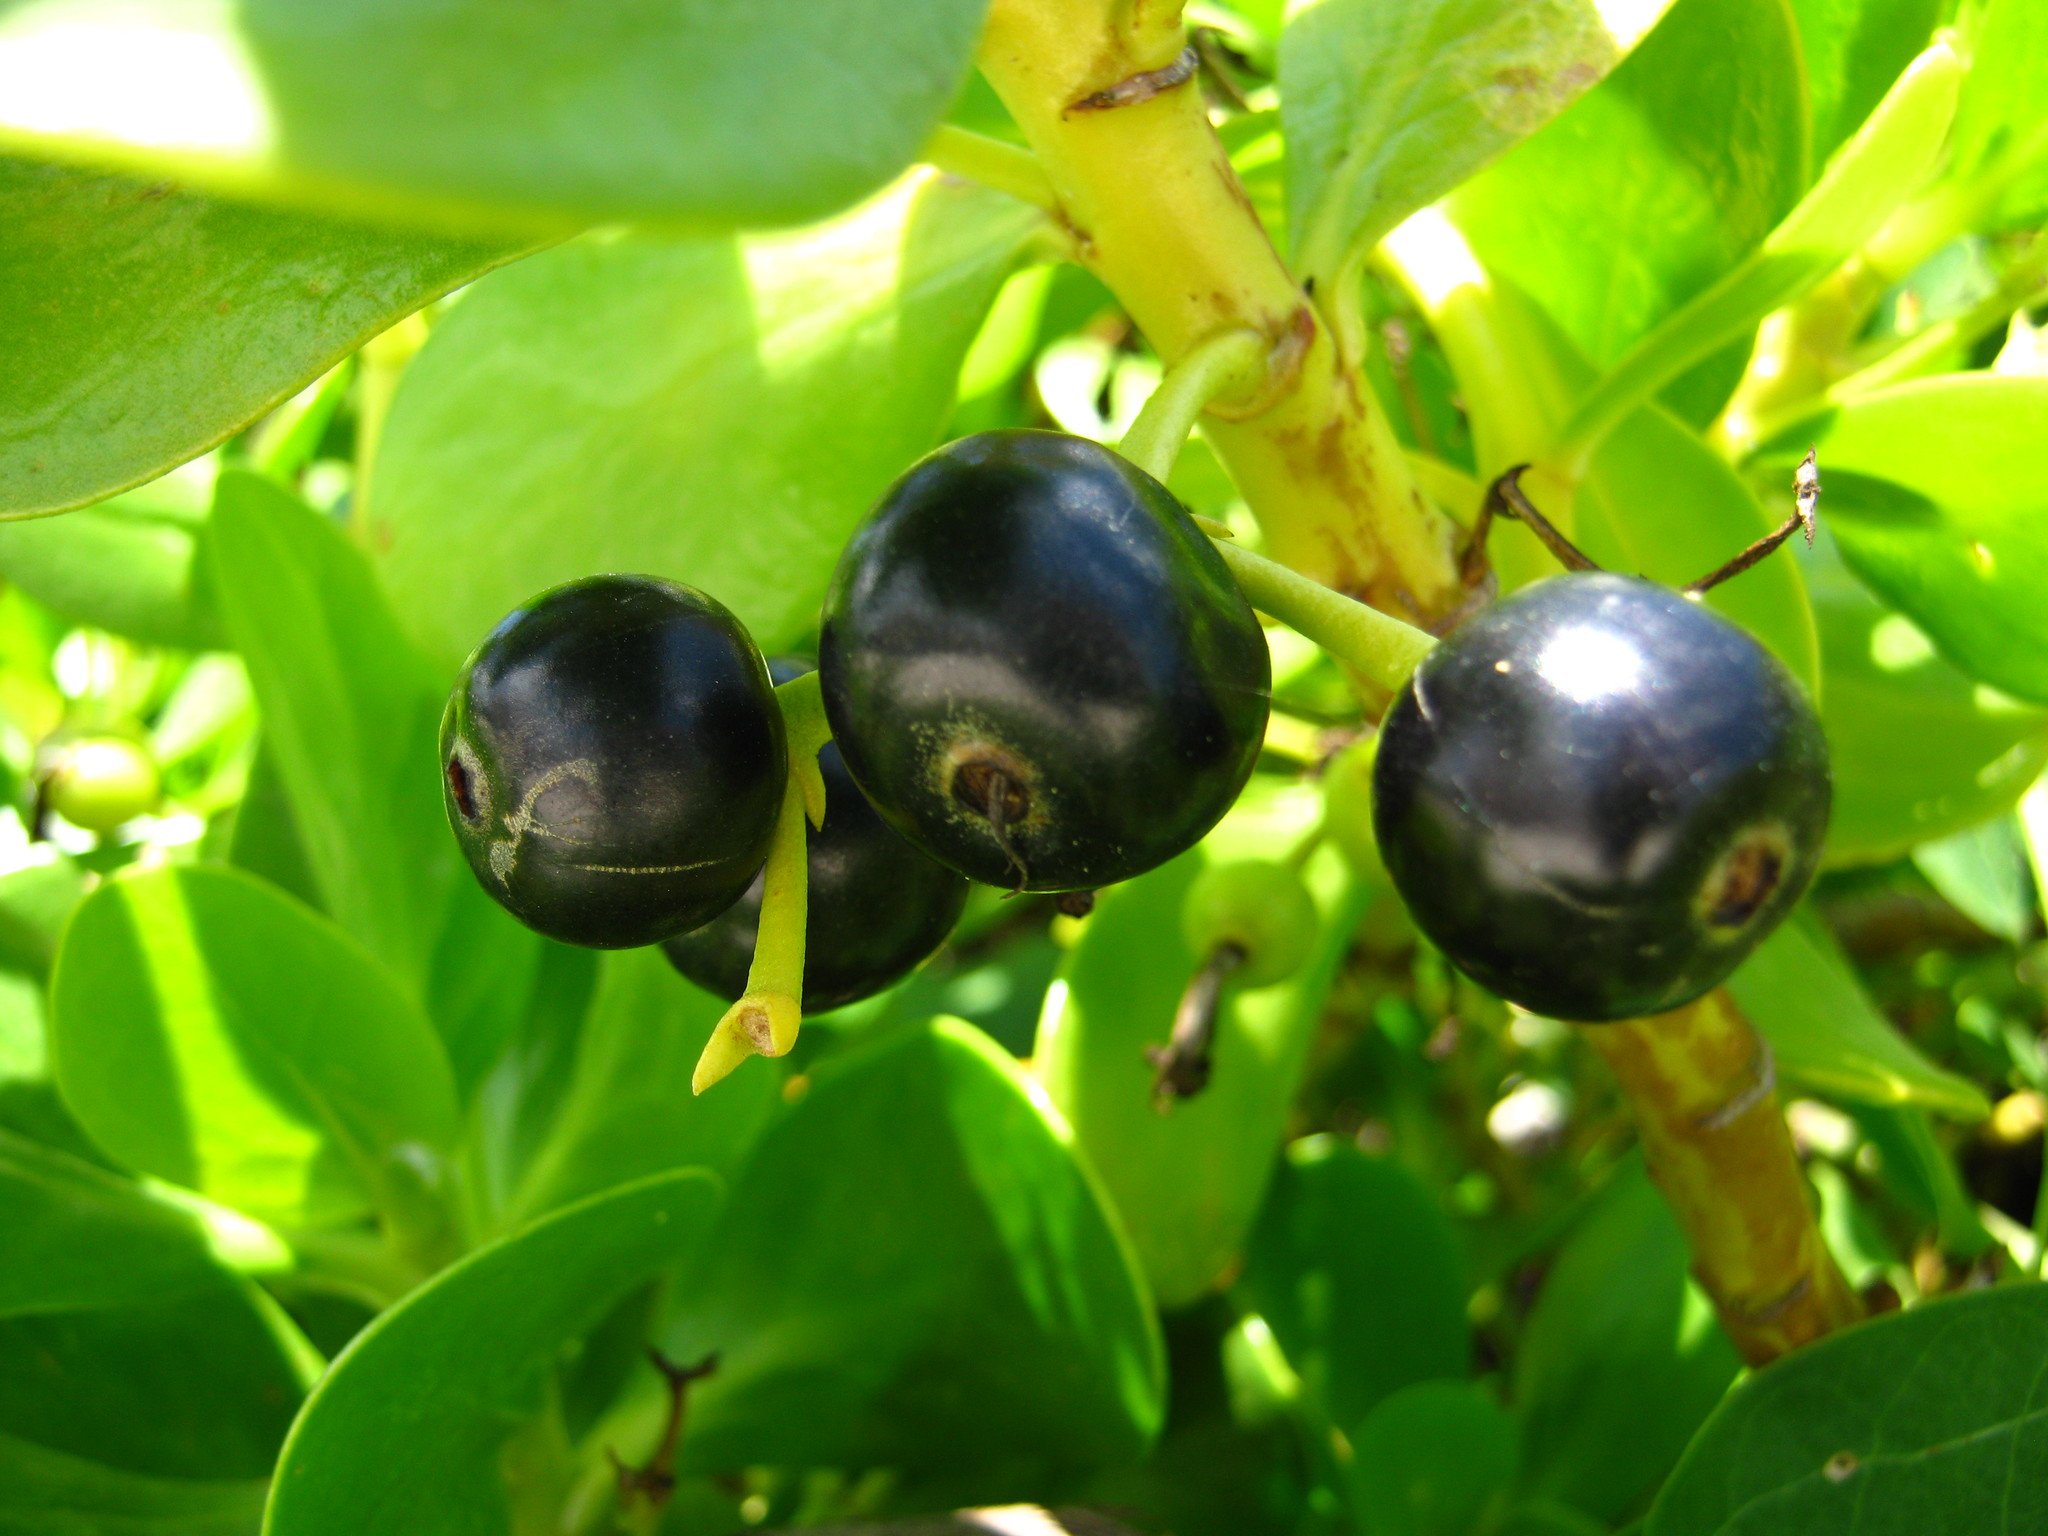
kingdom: Plantae
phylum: Tracheophyta
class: Magnoliopsida
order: Asterales
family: Goodeniaceae
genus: Scaevola
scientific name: Scaevola plumieri
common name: Gull feed
